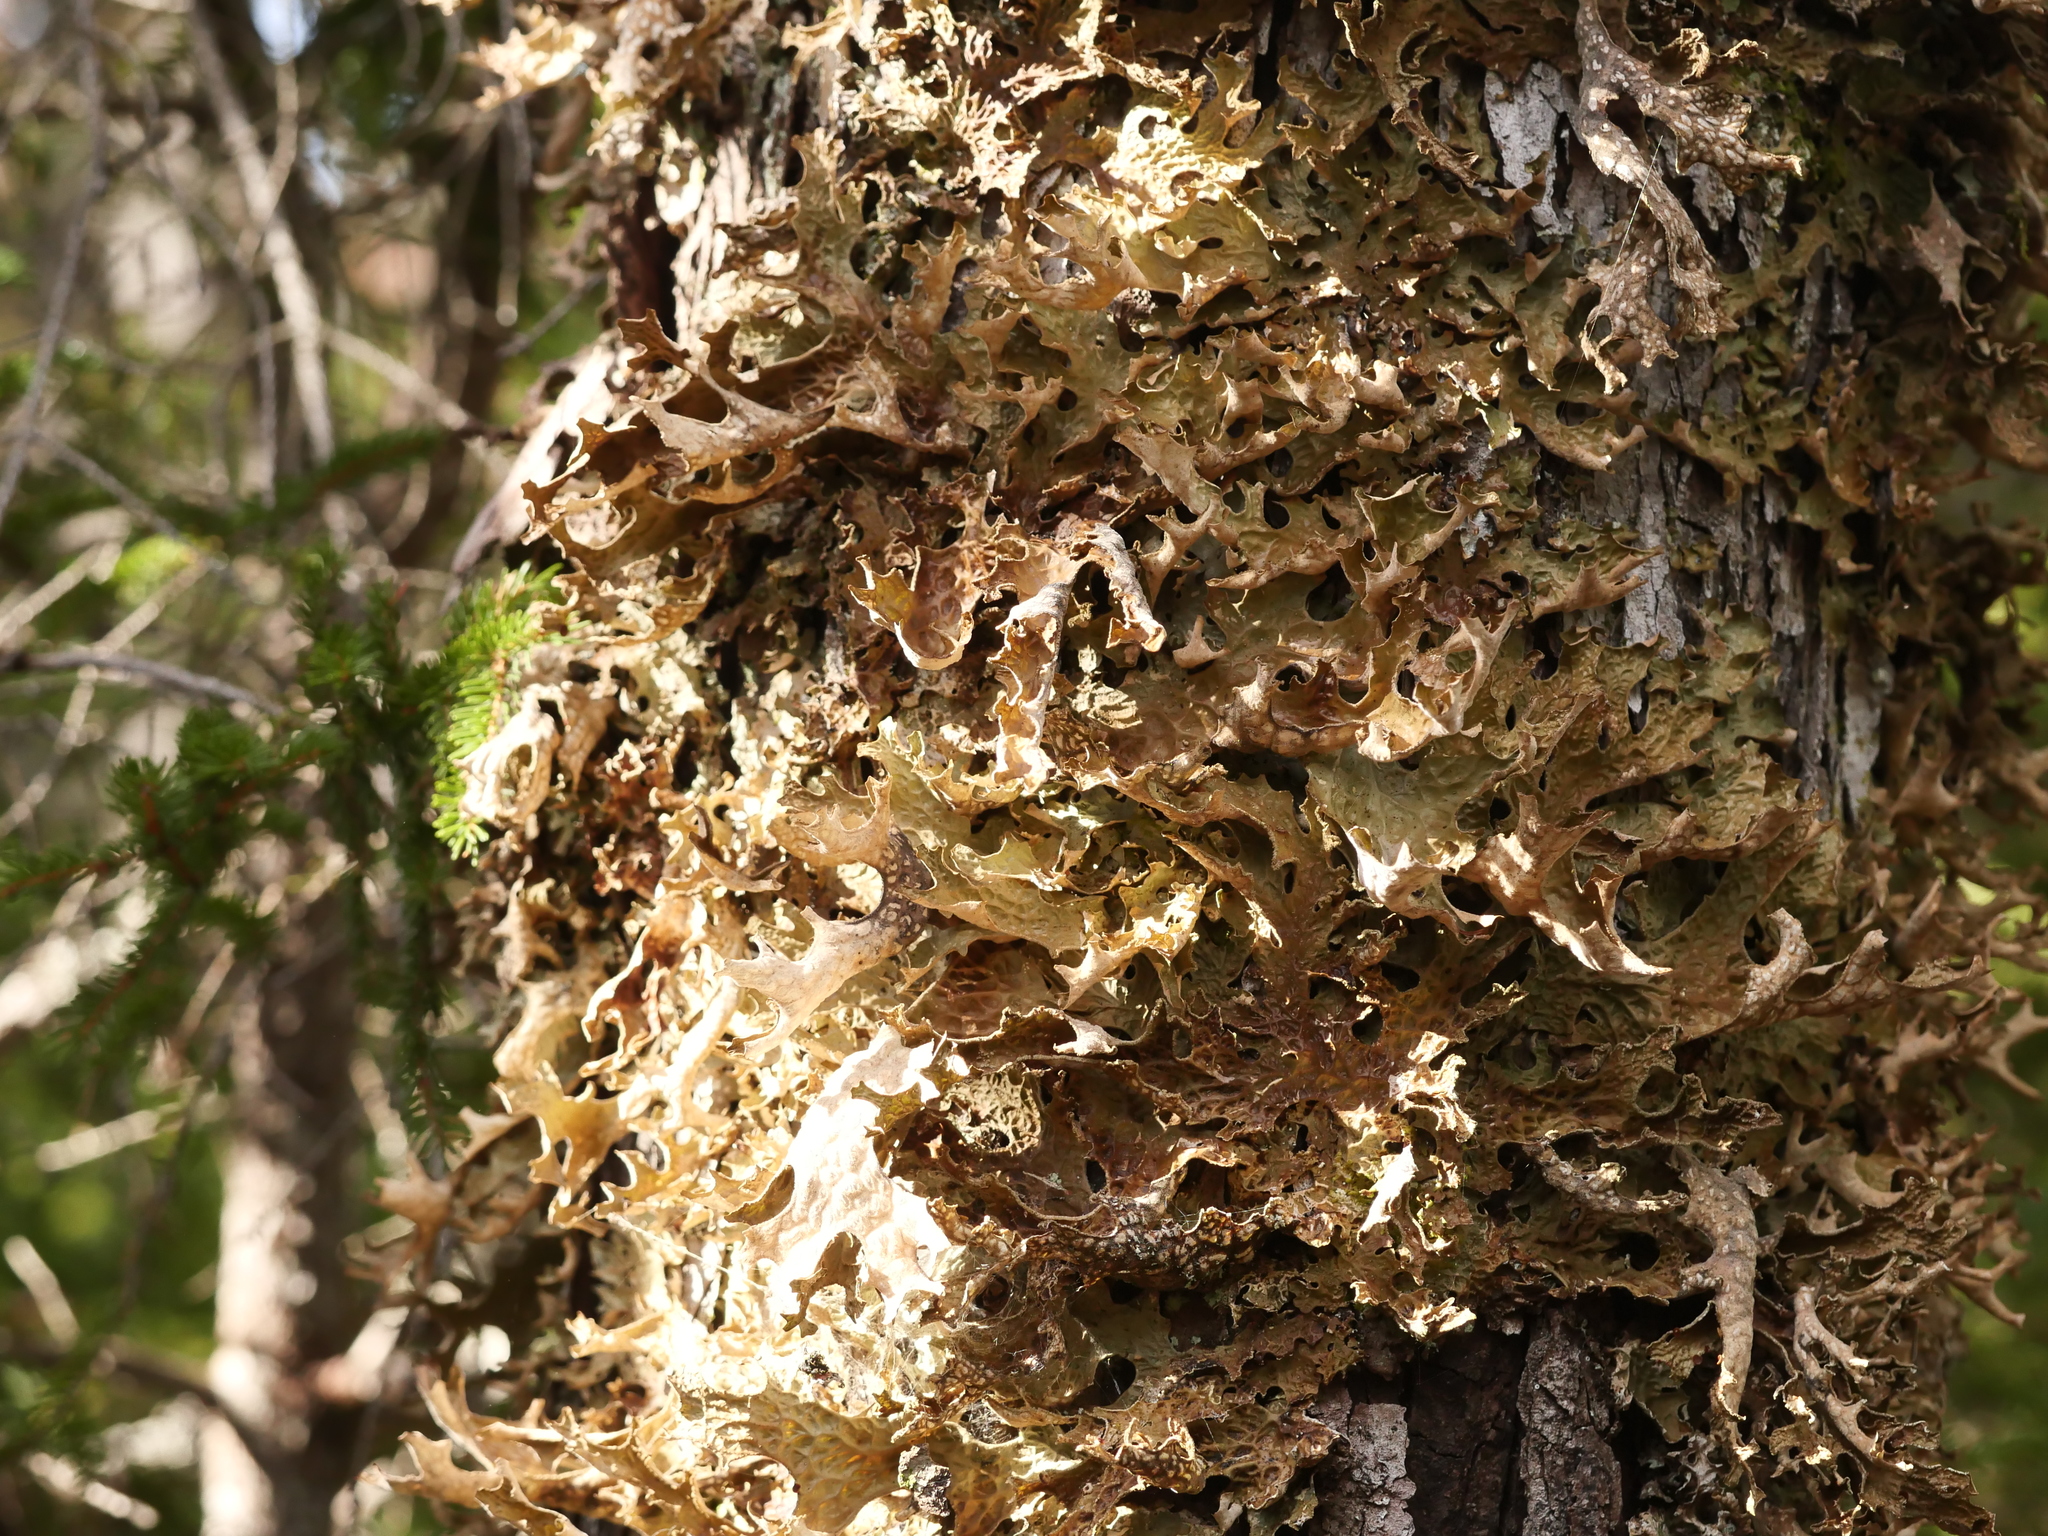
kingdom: Fungi
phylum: Ascomycota
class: Lecanoromycetes
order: Peltigerales
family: Lobariaceae
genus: Lobaria
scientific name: Lobaria pulmonaria
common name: Lungwort
